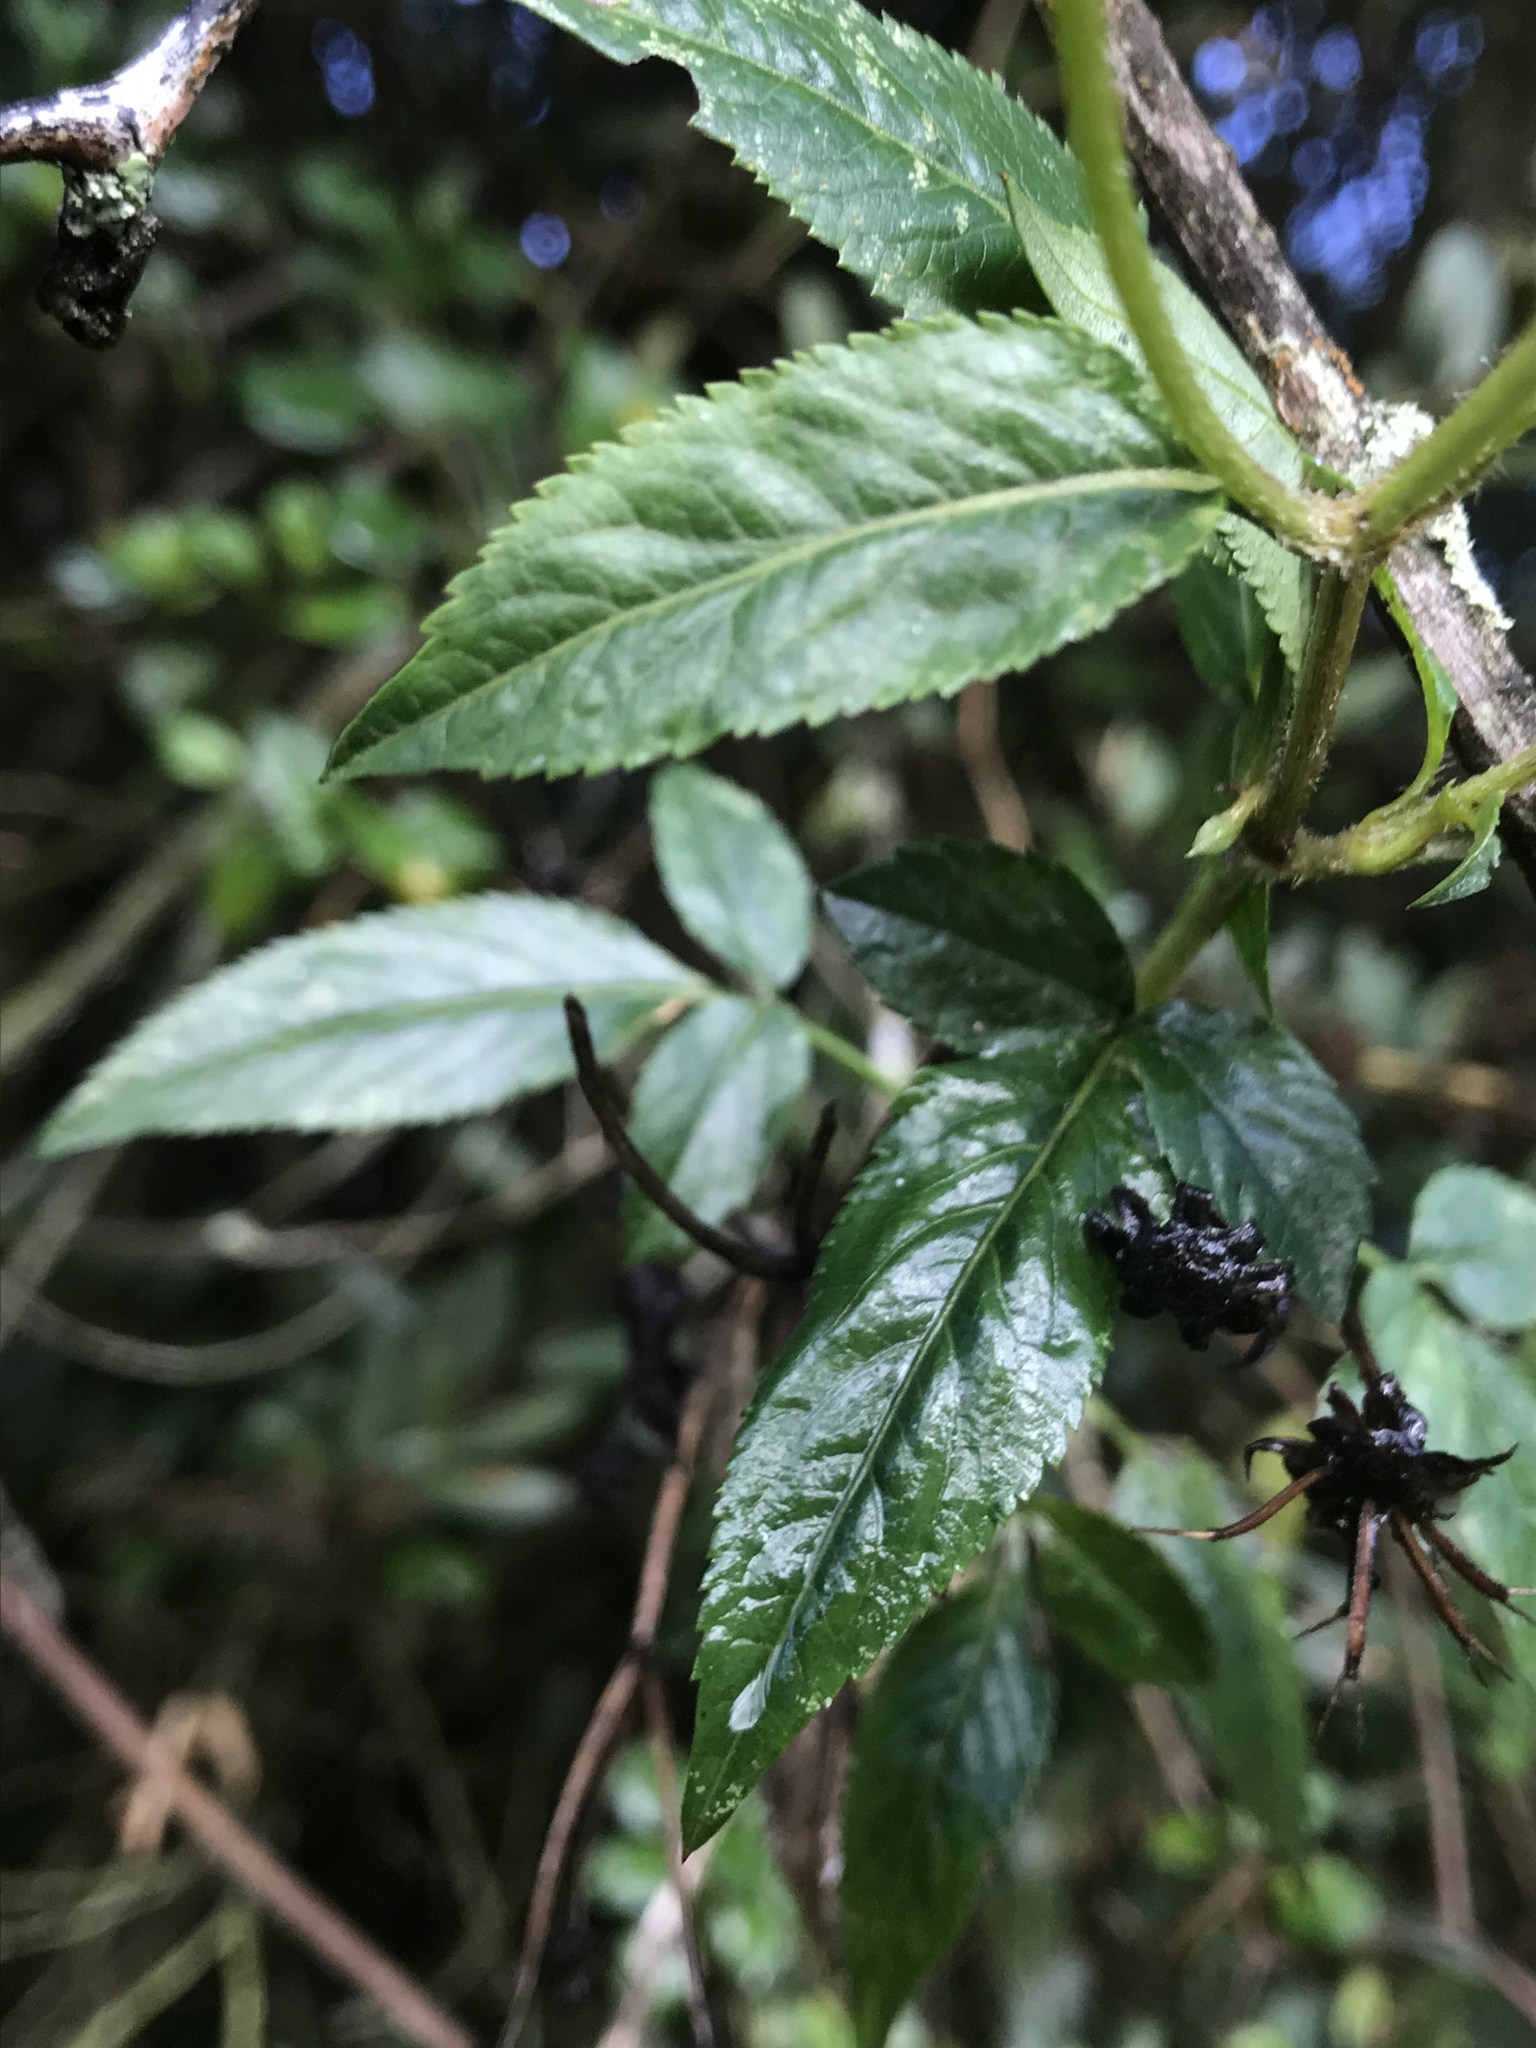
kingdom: Plantae
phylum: Tracheophyta
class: Magnoliopsida
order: Asterales
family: Asteraceae
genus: Bidens
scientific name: Bidens rubifolia
